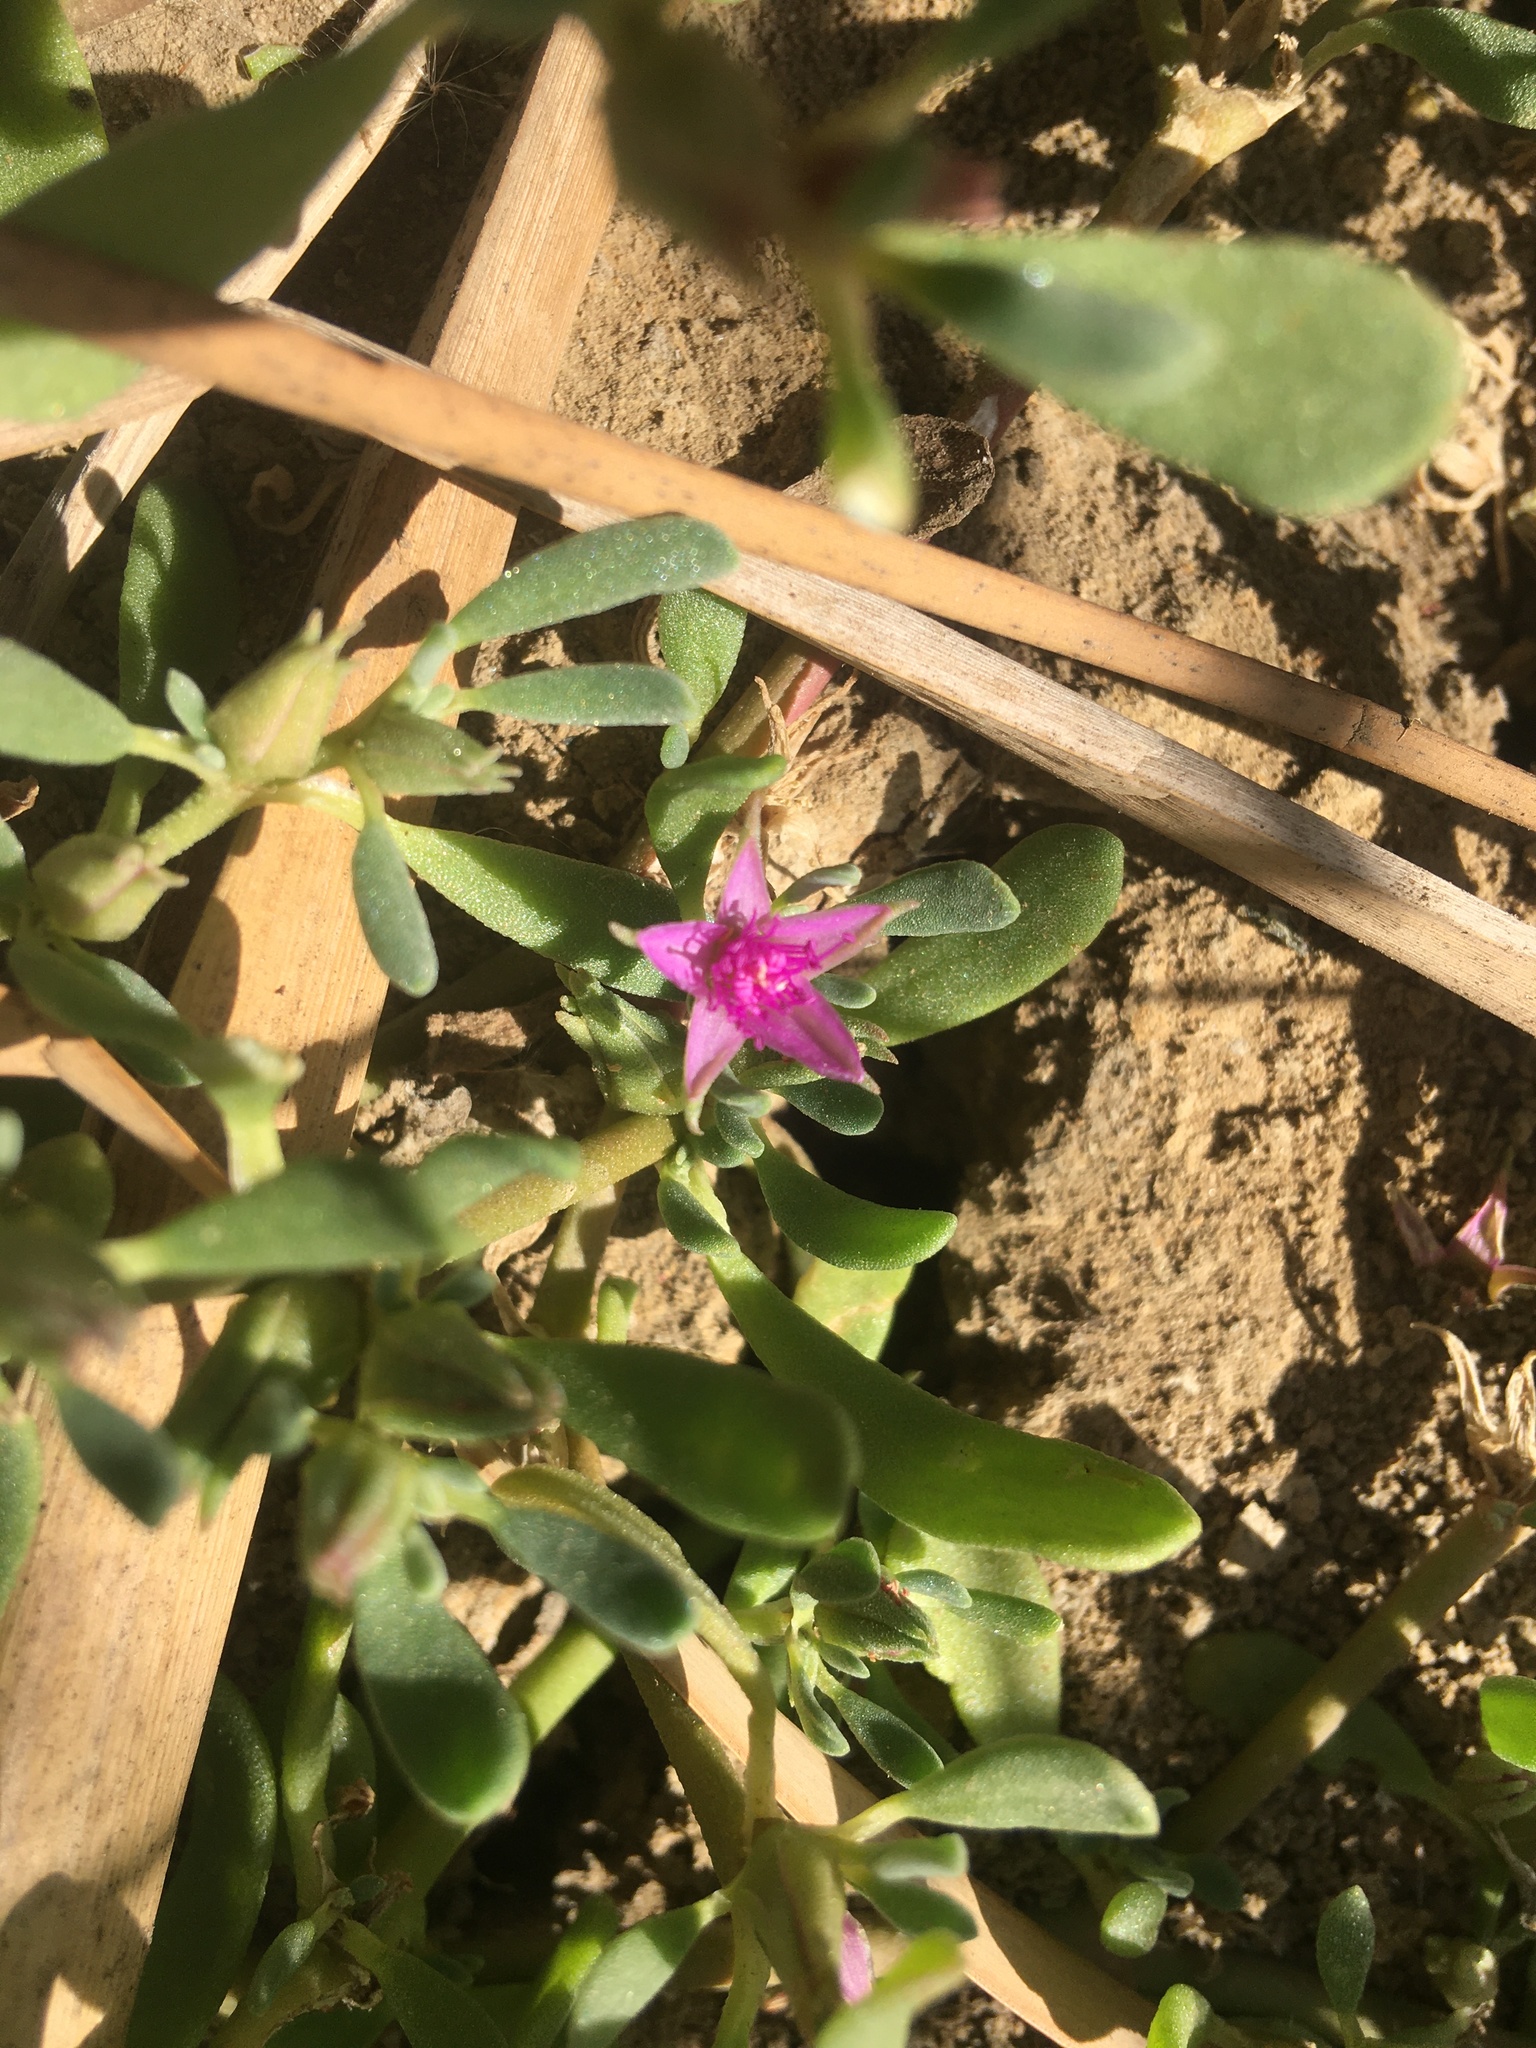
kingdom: Plantae
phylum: Tracheophyta
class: Magnoliopsida
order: Caryophyllales
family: Aizoaceae
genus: Sesuvium
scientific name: Sesuvium revolutifolium
